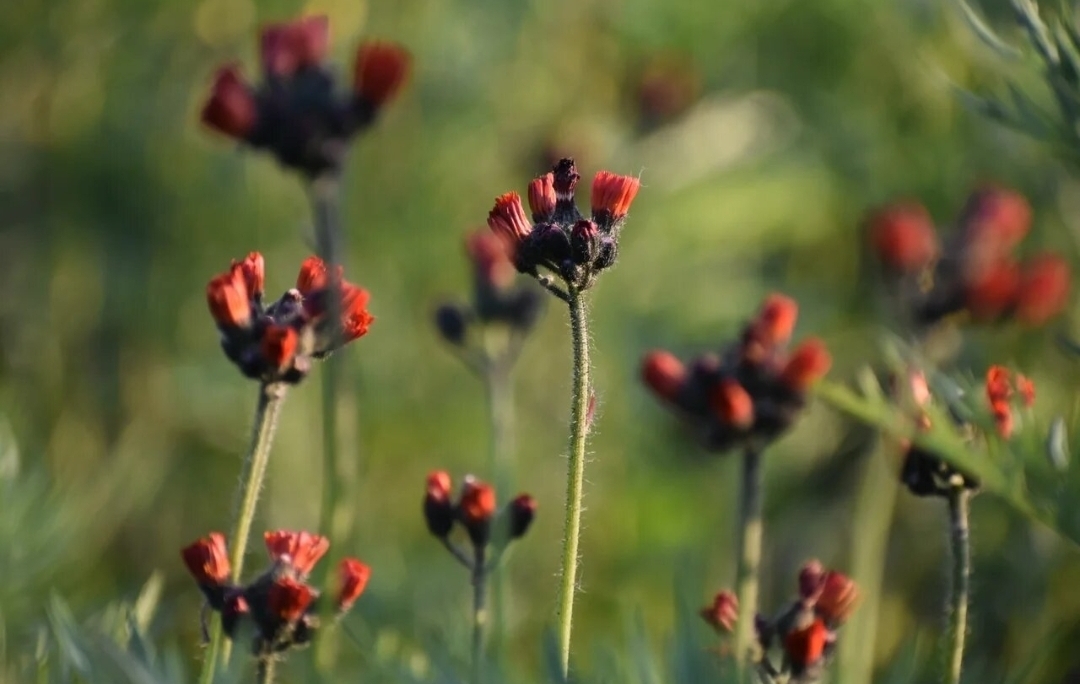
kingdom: Plantae
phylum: Tracheophyta
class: Magnoliopsida
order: Asterales
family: Asteraceae
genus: Pilosella
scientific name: Pilosella aurantiaca
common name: Fox-and-cubs
